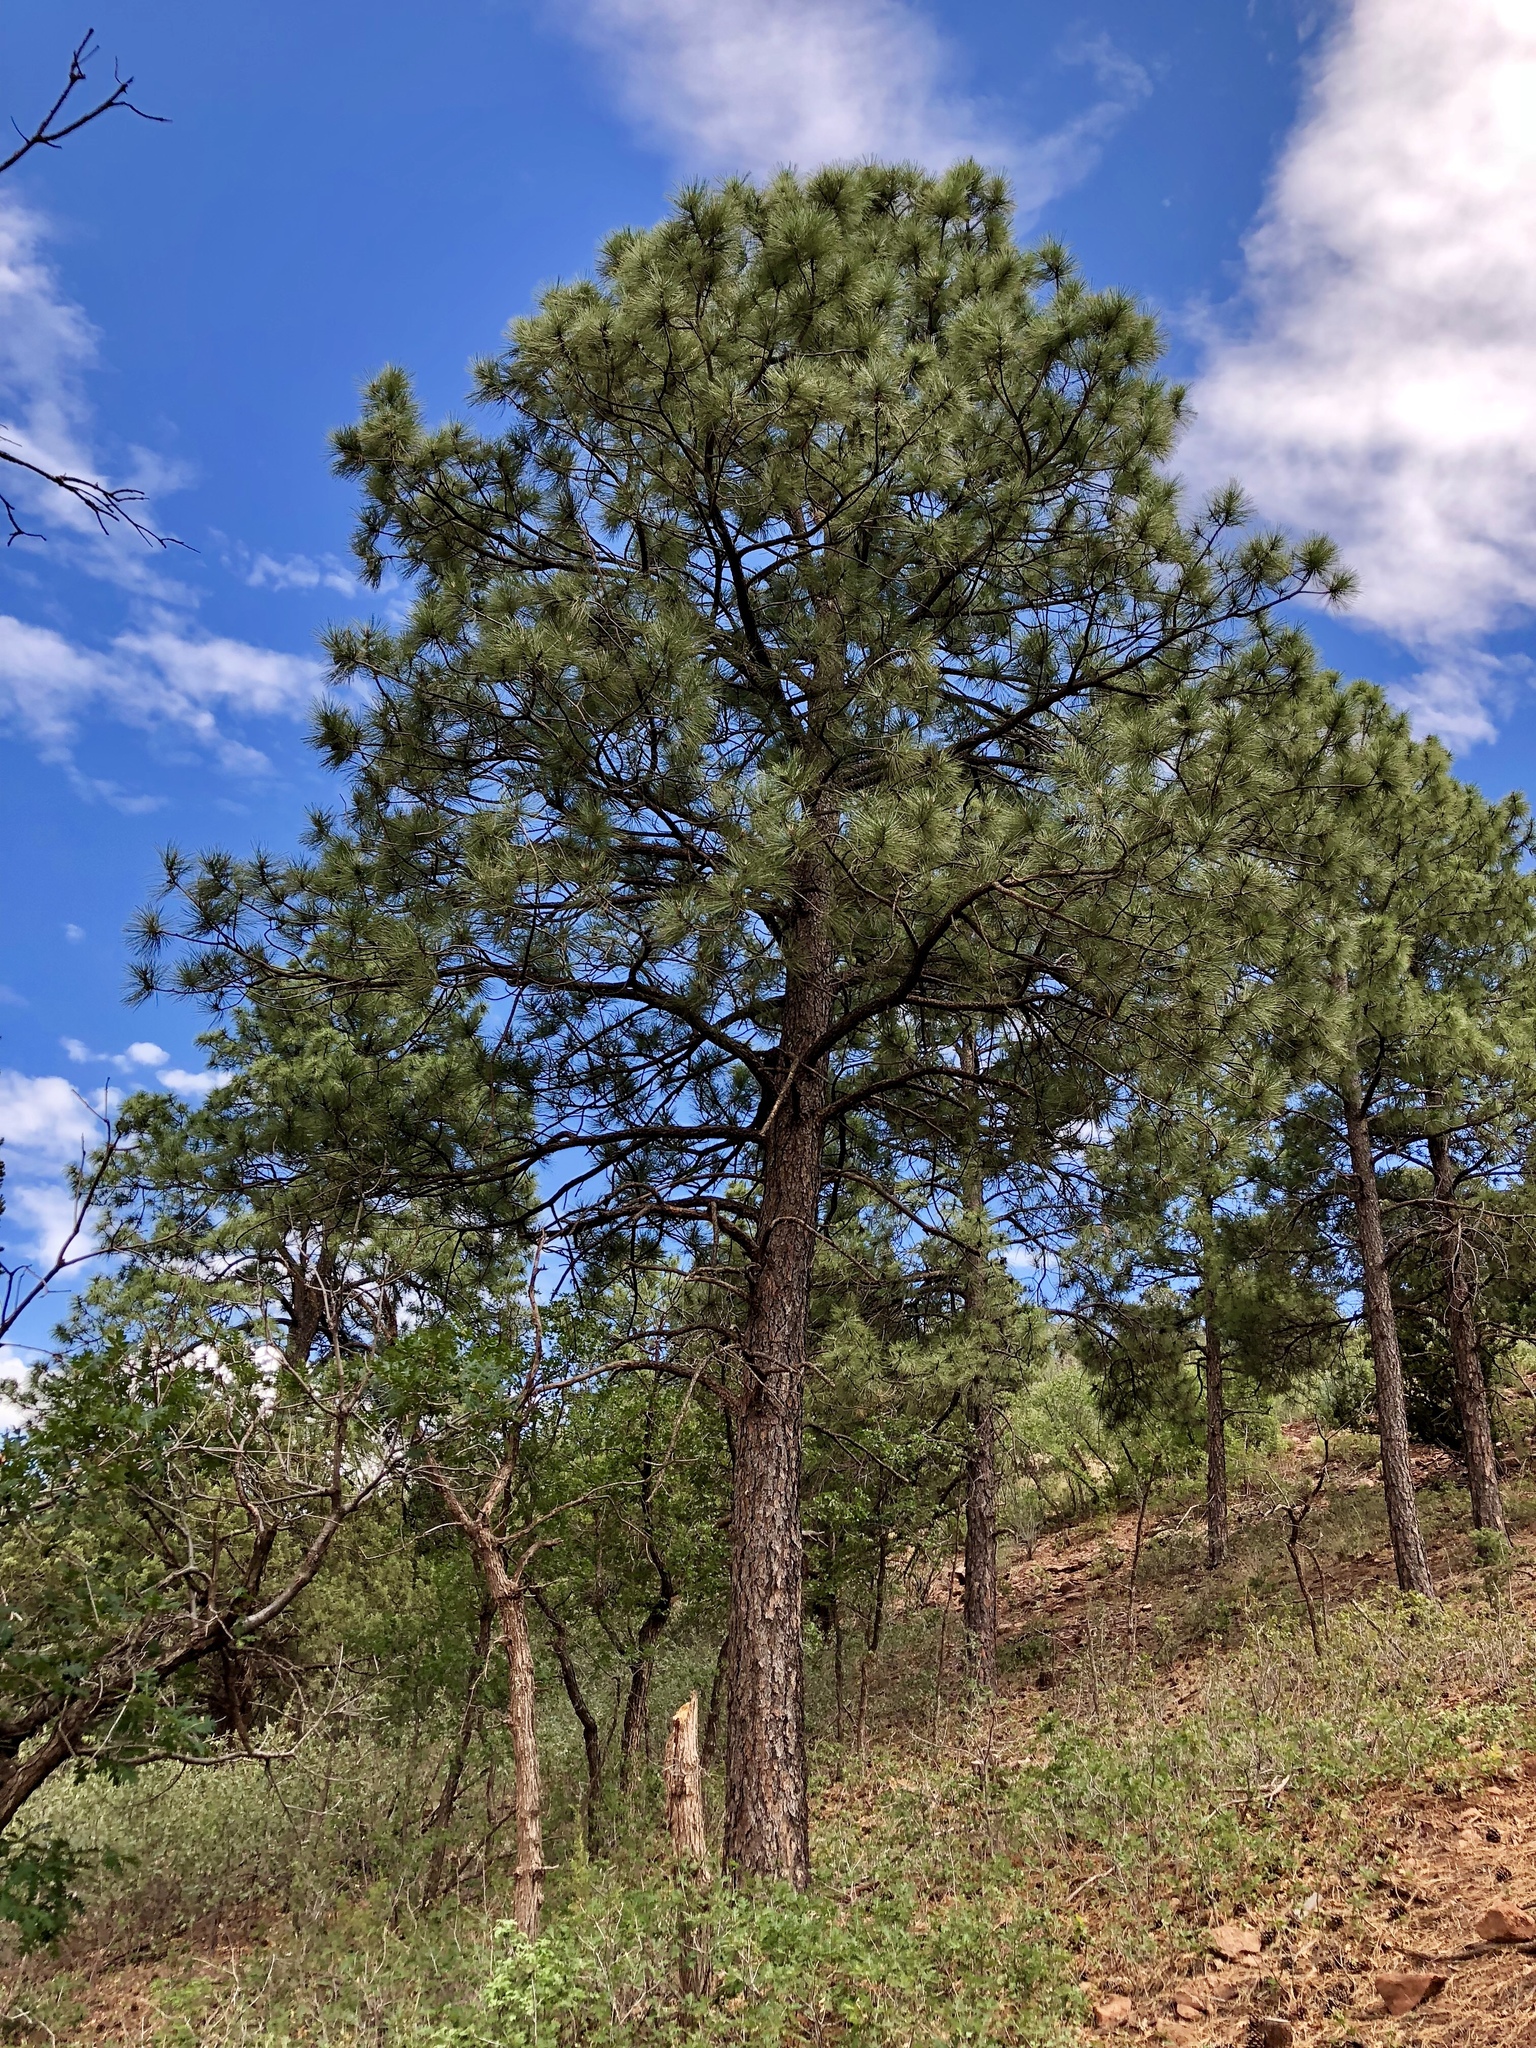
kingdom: Plantae
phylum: Tracheophyta
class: Pinopsida
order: Pinales
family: Pinaceae
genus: Pinus
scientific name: Pinus ponderosa
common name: Western yellow-pine
